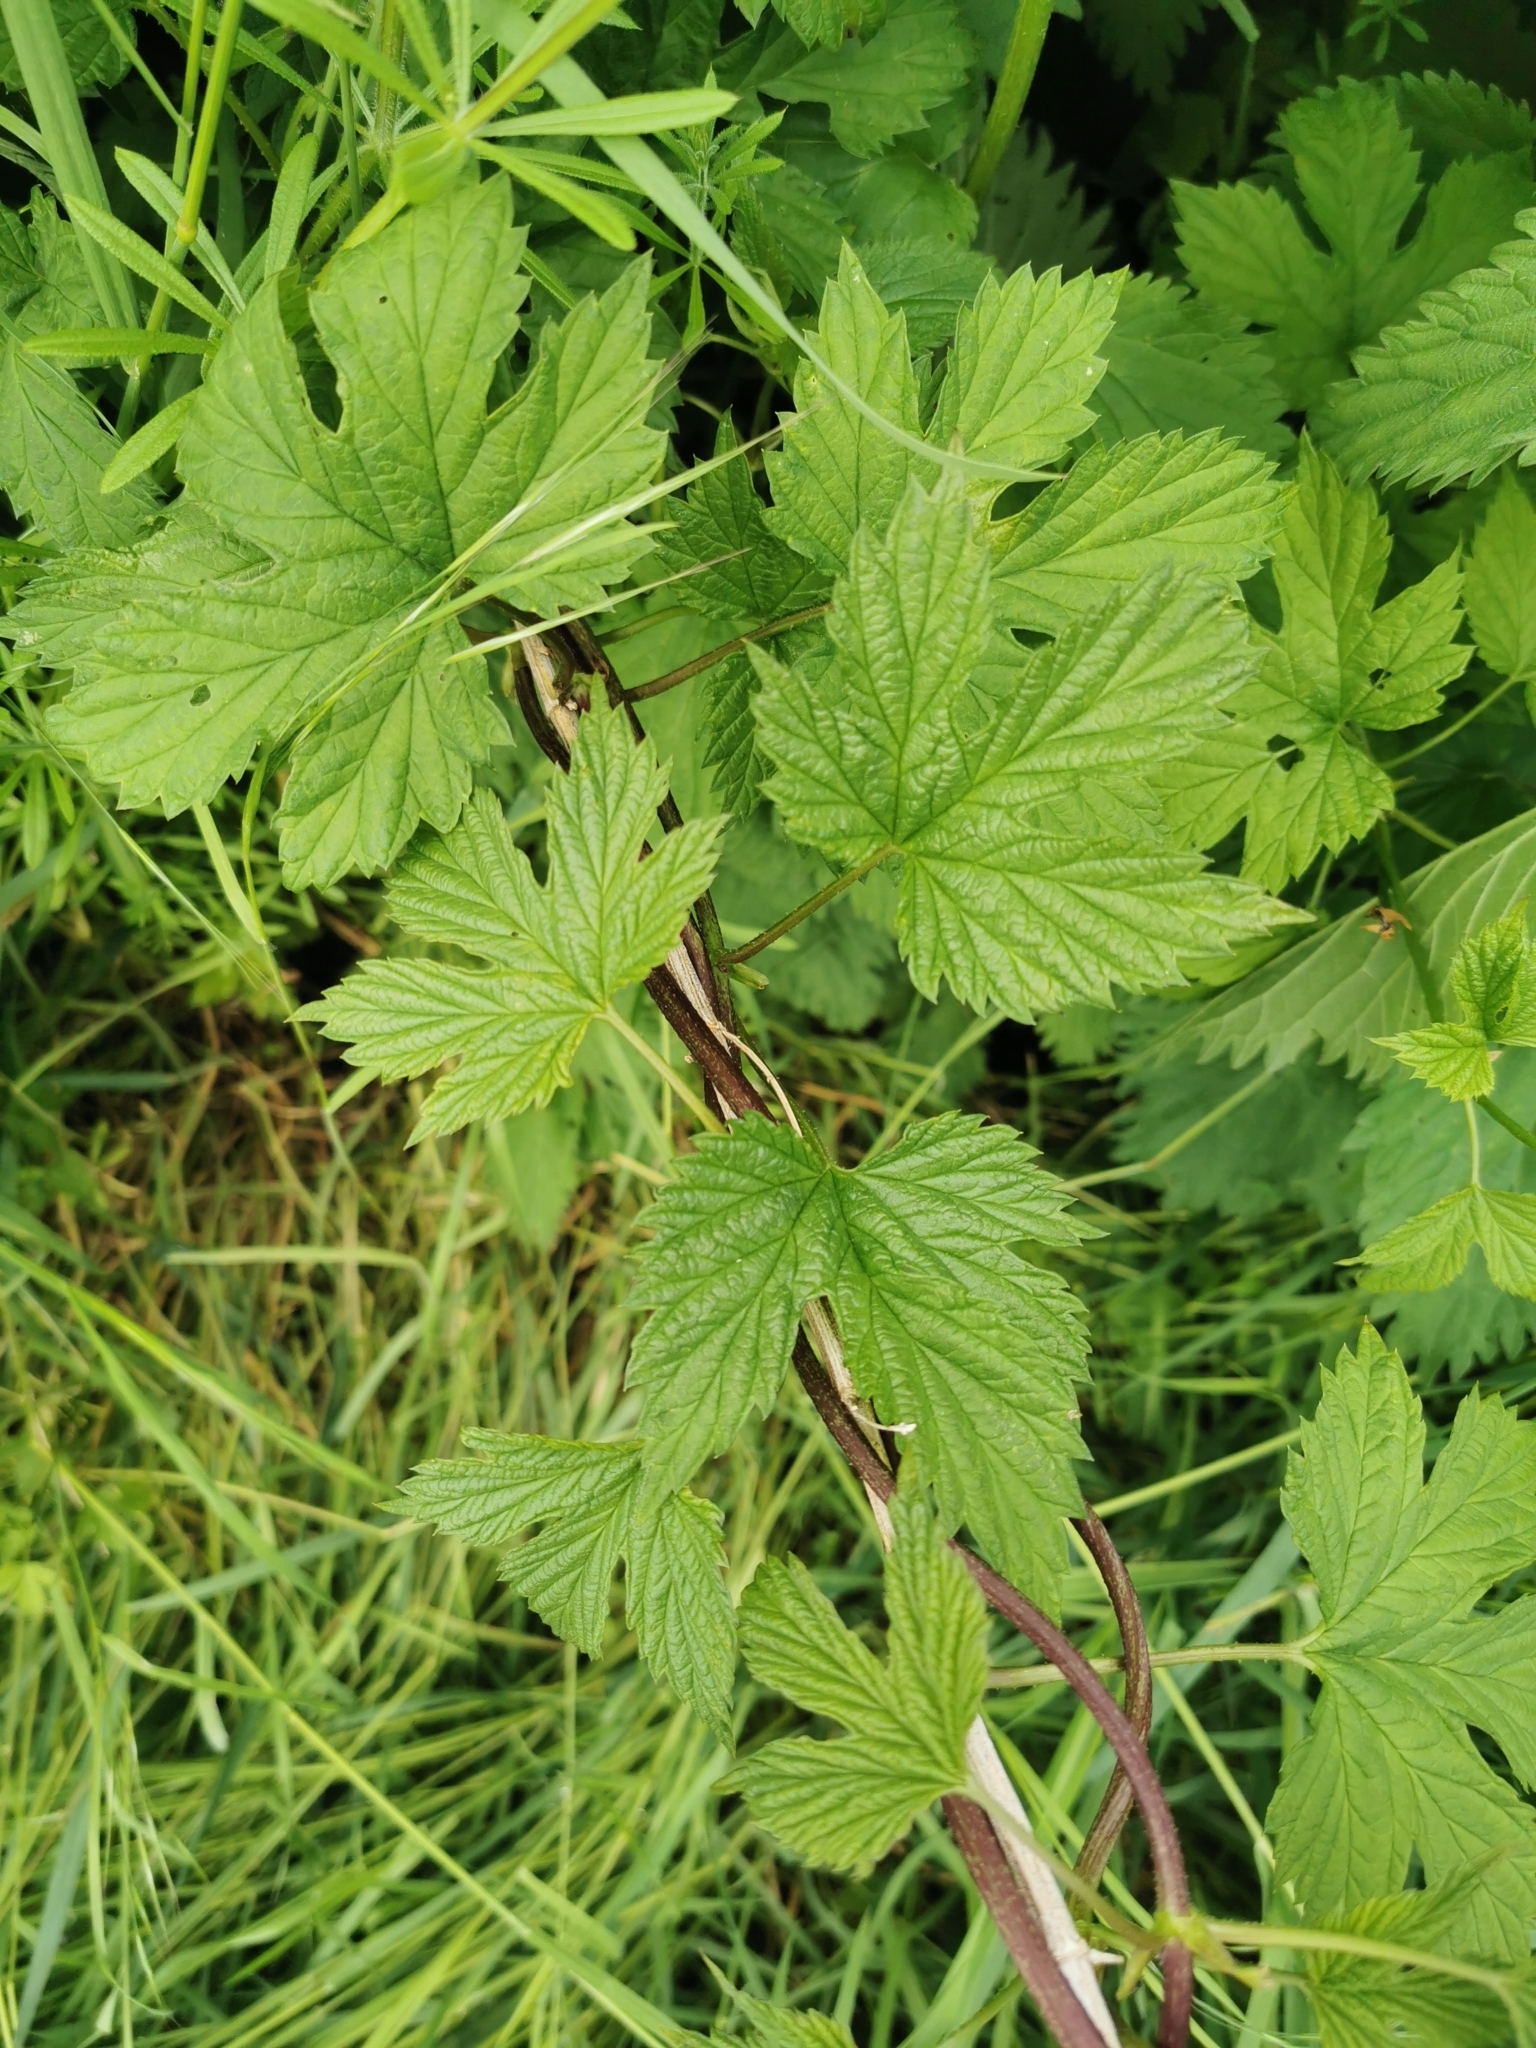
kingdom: Plantae
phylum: Tracheophyta
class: Magnoliopsida
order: Rosales
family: Cannabaceae
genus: Humulus
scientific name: Humulus lupulus
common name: Hop
